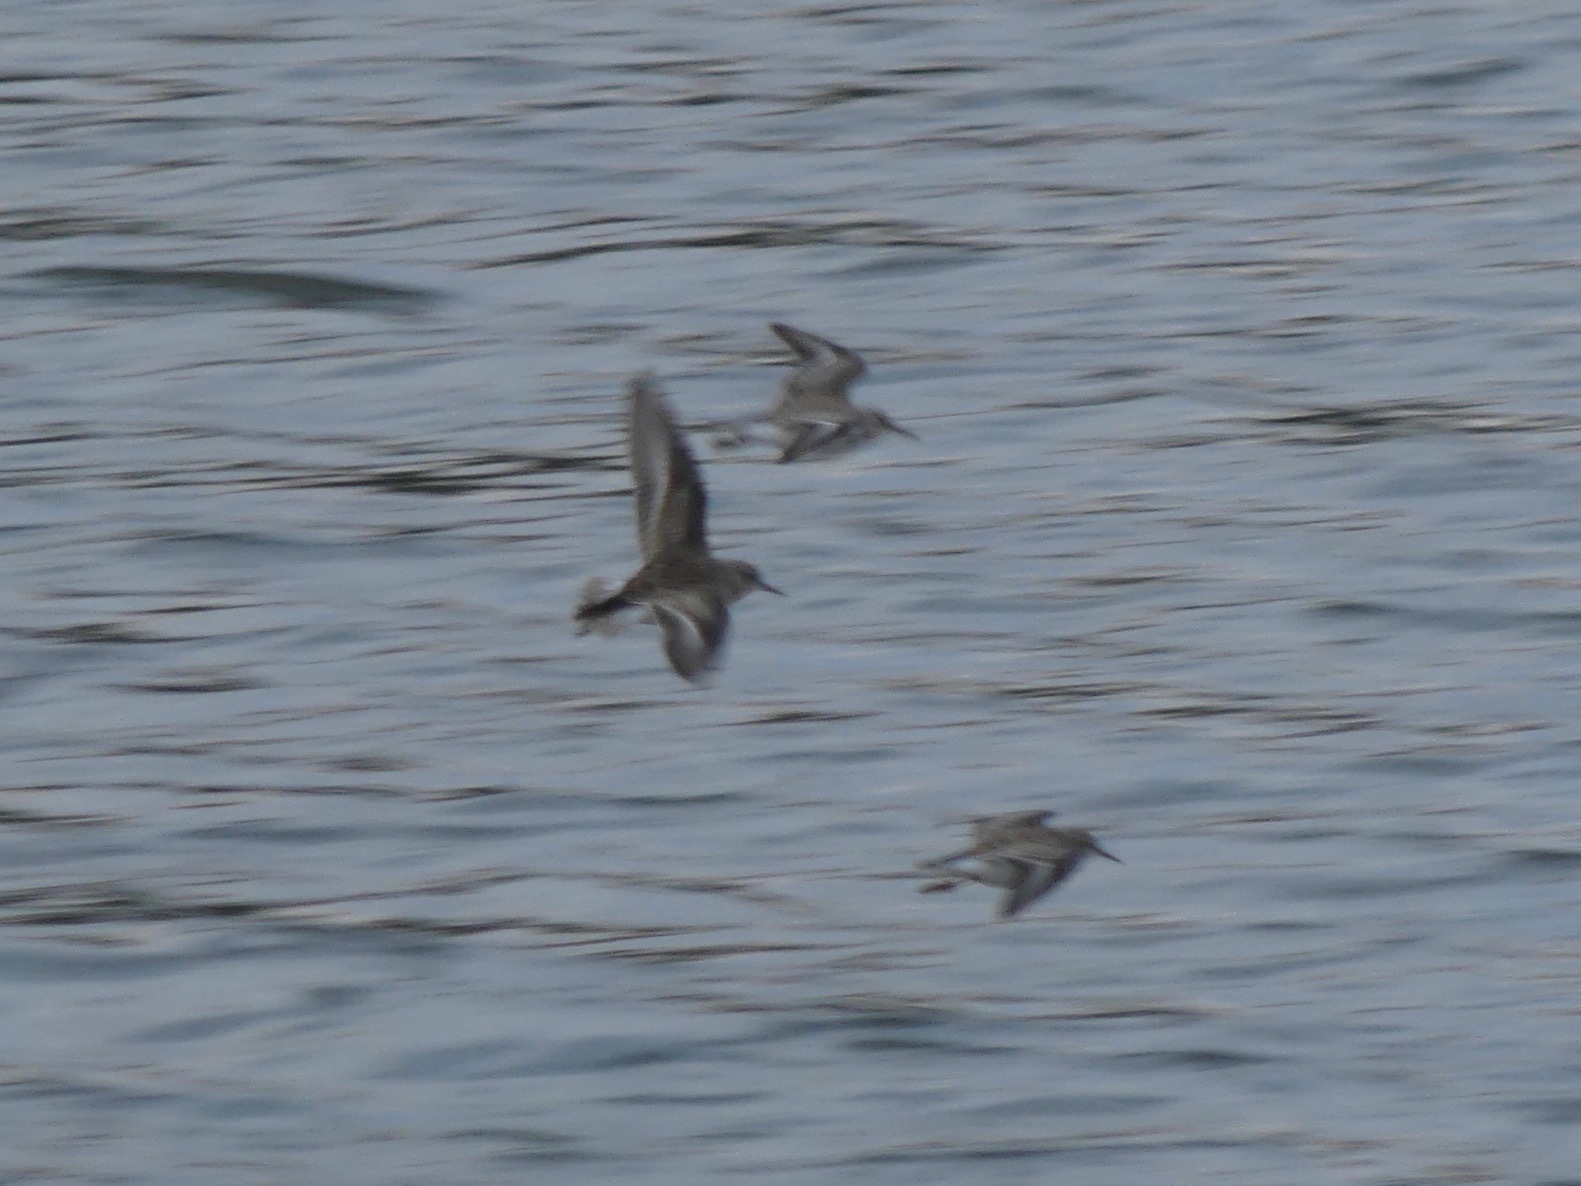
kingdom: Animalia
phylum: Chordata
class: Aves
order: Charadriiformes
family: Scolopacidae
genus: Calidris
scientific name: Calidris minutilla
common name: Least sandpiper
